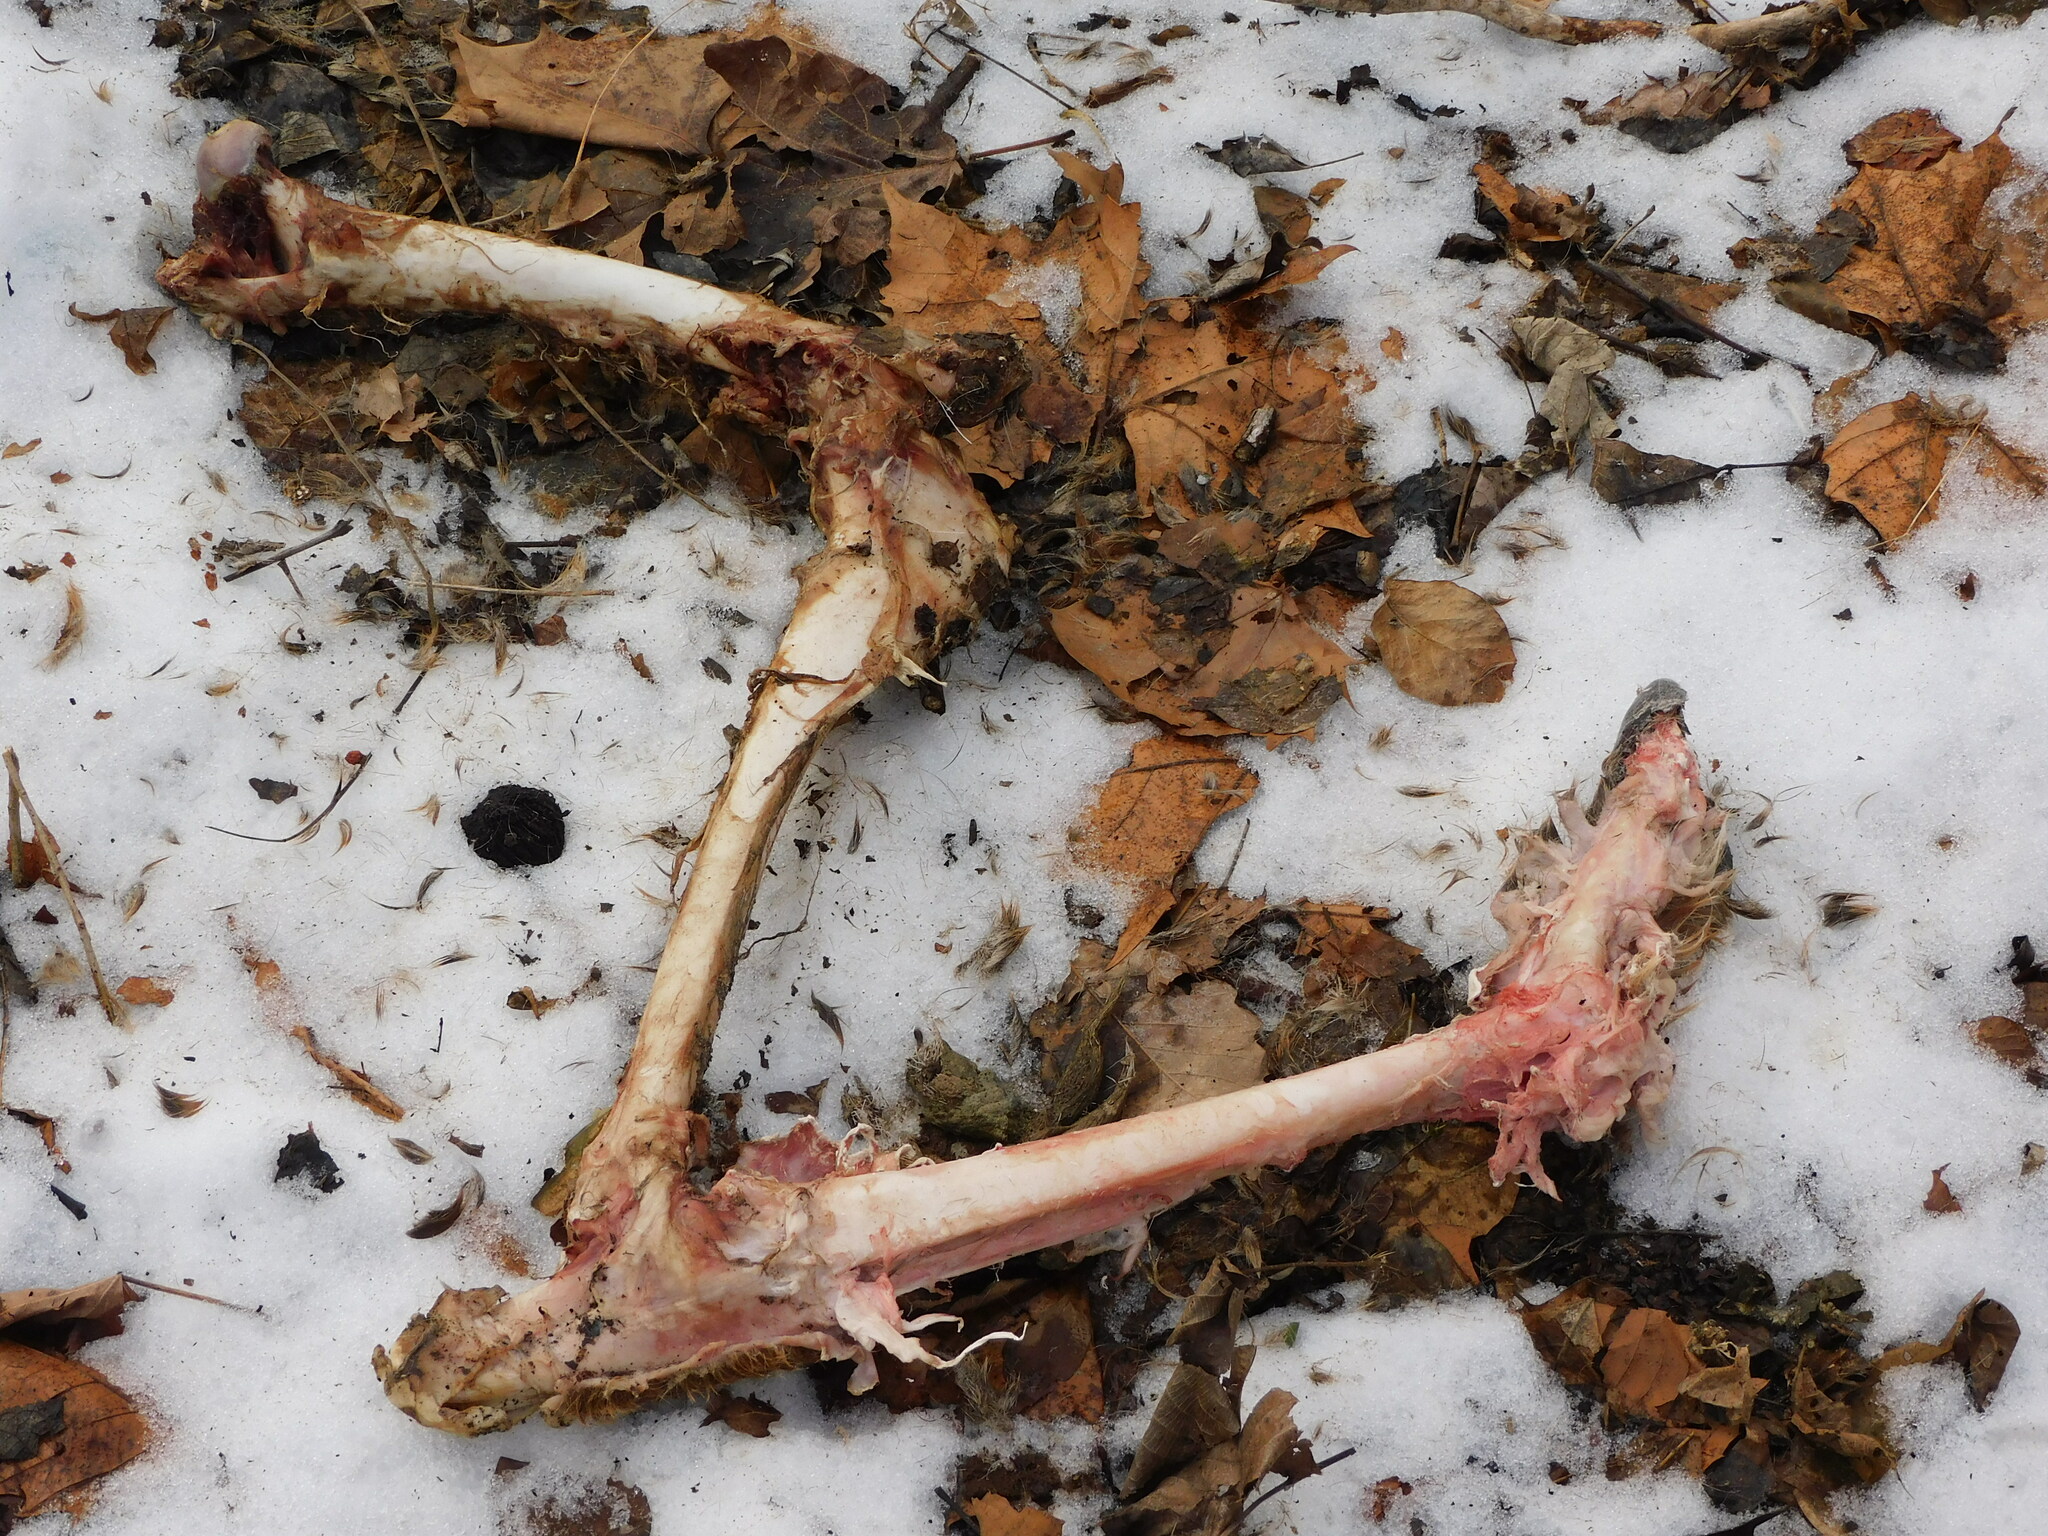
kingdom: Animalia
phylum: Chordata
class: Mammalia
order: Artiodactyla
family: Cervidae
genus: Odocoileus
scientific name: Odocoileus virginianus
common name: White-tailed deer
